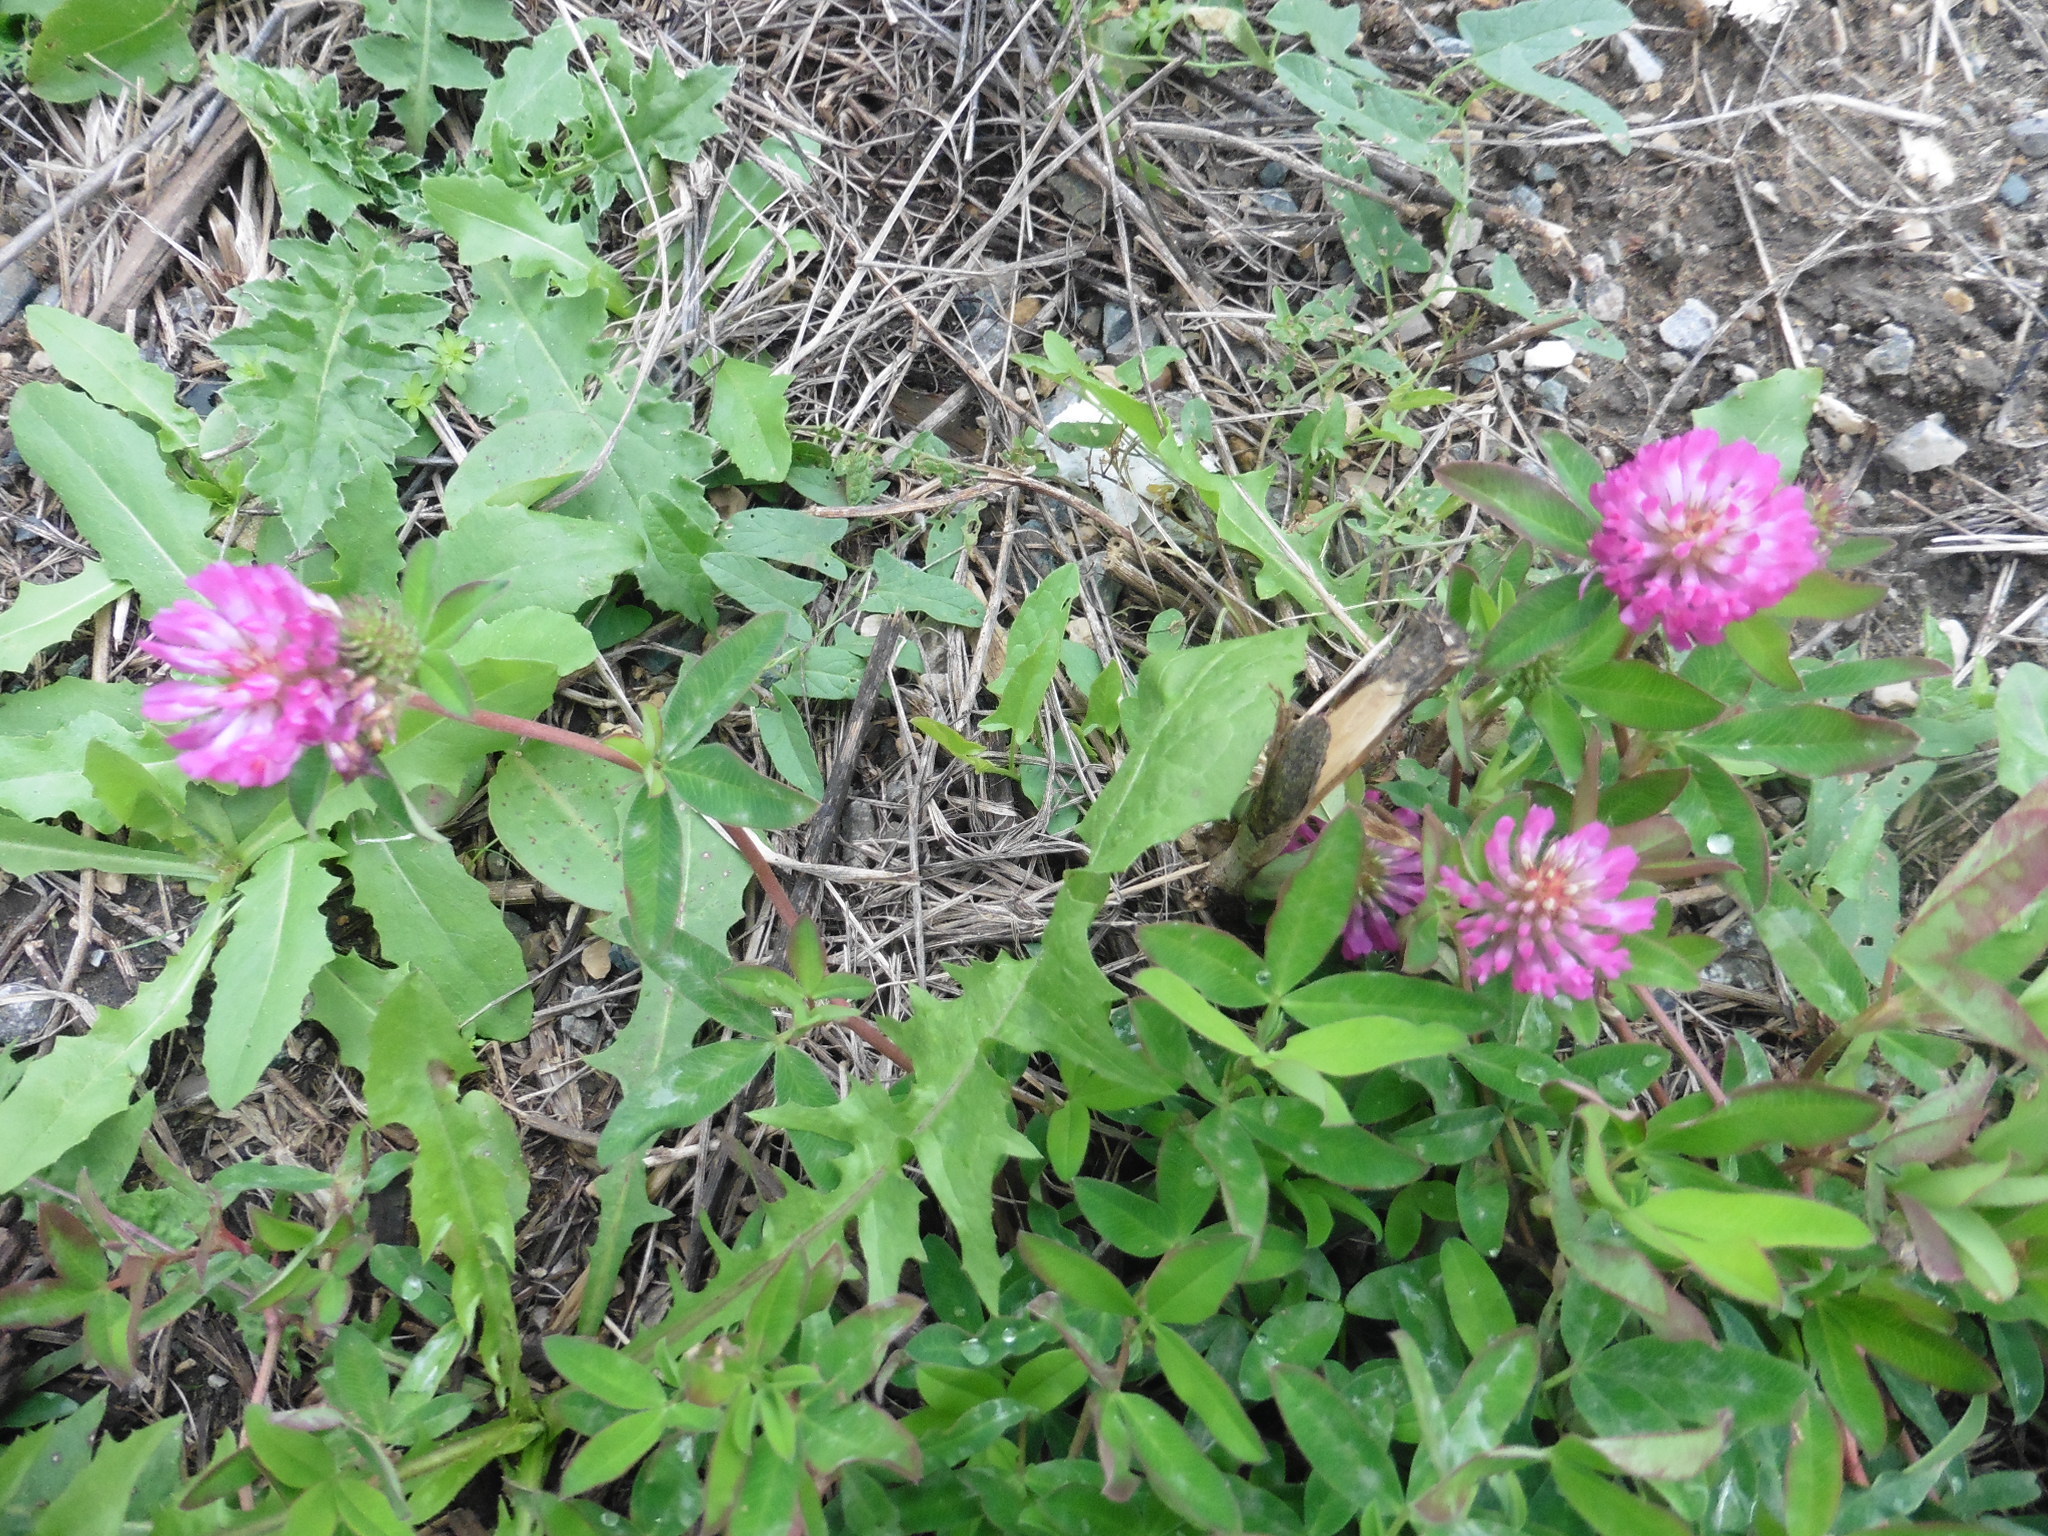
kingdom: Plantae
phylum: Tracheophyta
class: Magnoliopsida
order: Fabales
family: Fabaceae
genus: Trifolium
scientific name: Trifolium medium
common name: Zigzag clover
